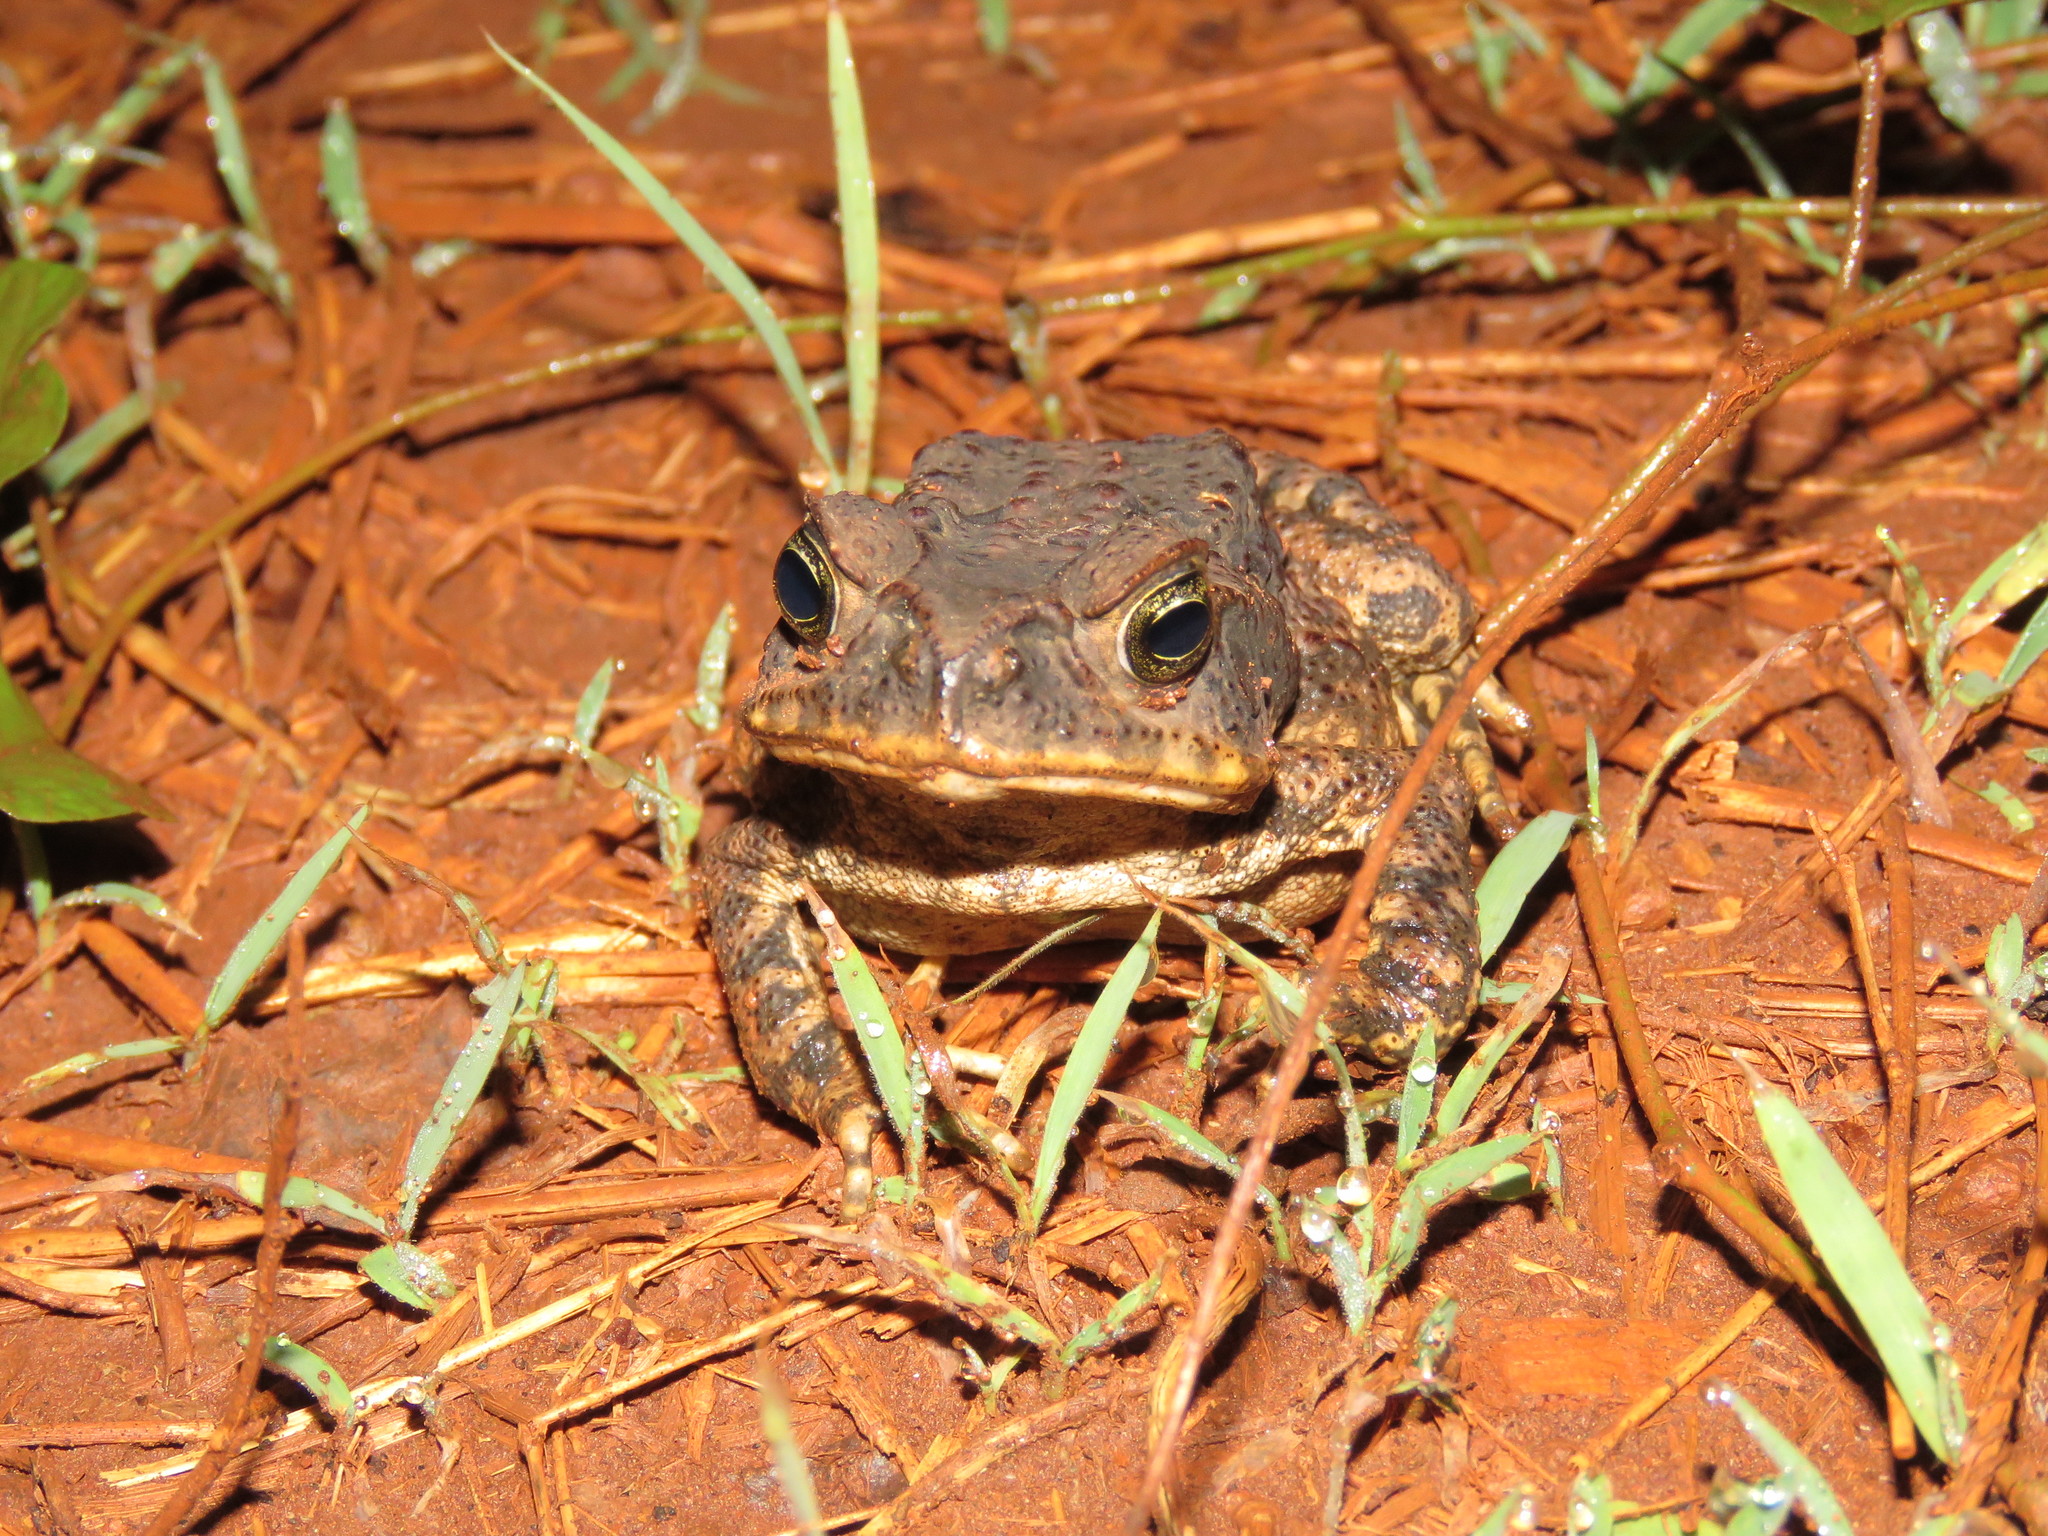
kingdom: Animalia
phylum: Chordata
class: Amphibia
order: Anura
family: Bufonidae
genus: Rhinella
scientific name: Rhinella diptycha
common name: Cope's toad
